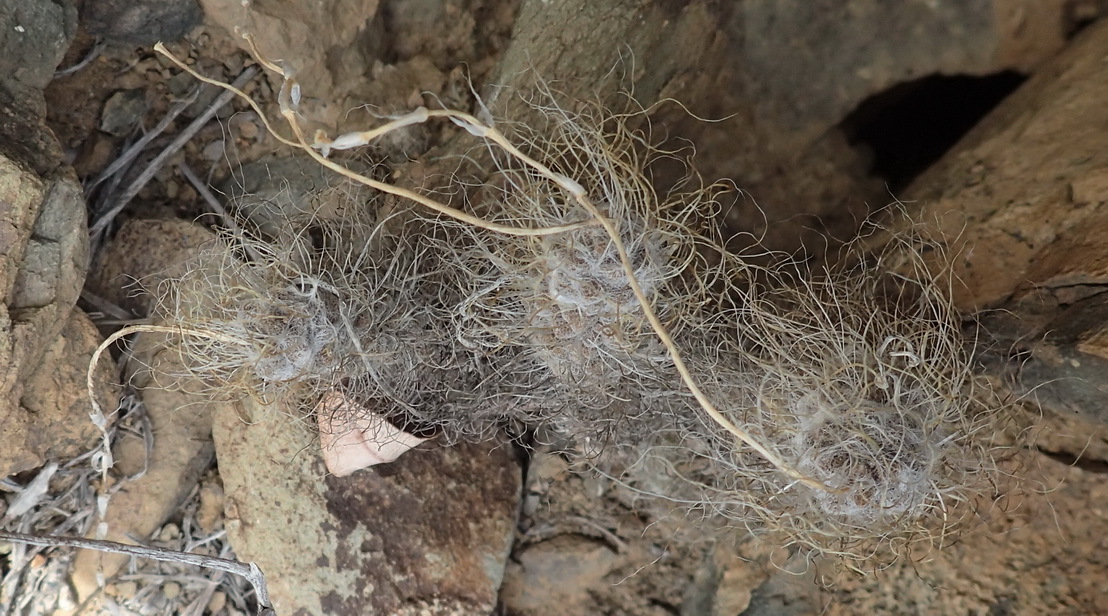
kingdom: Plantae
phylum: Tracheophyta
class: Magnoliopsida
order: Caryophyllales
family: Anacampserotaceae
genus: Anacampseros
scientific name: Anacampseros albidiflora
